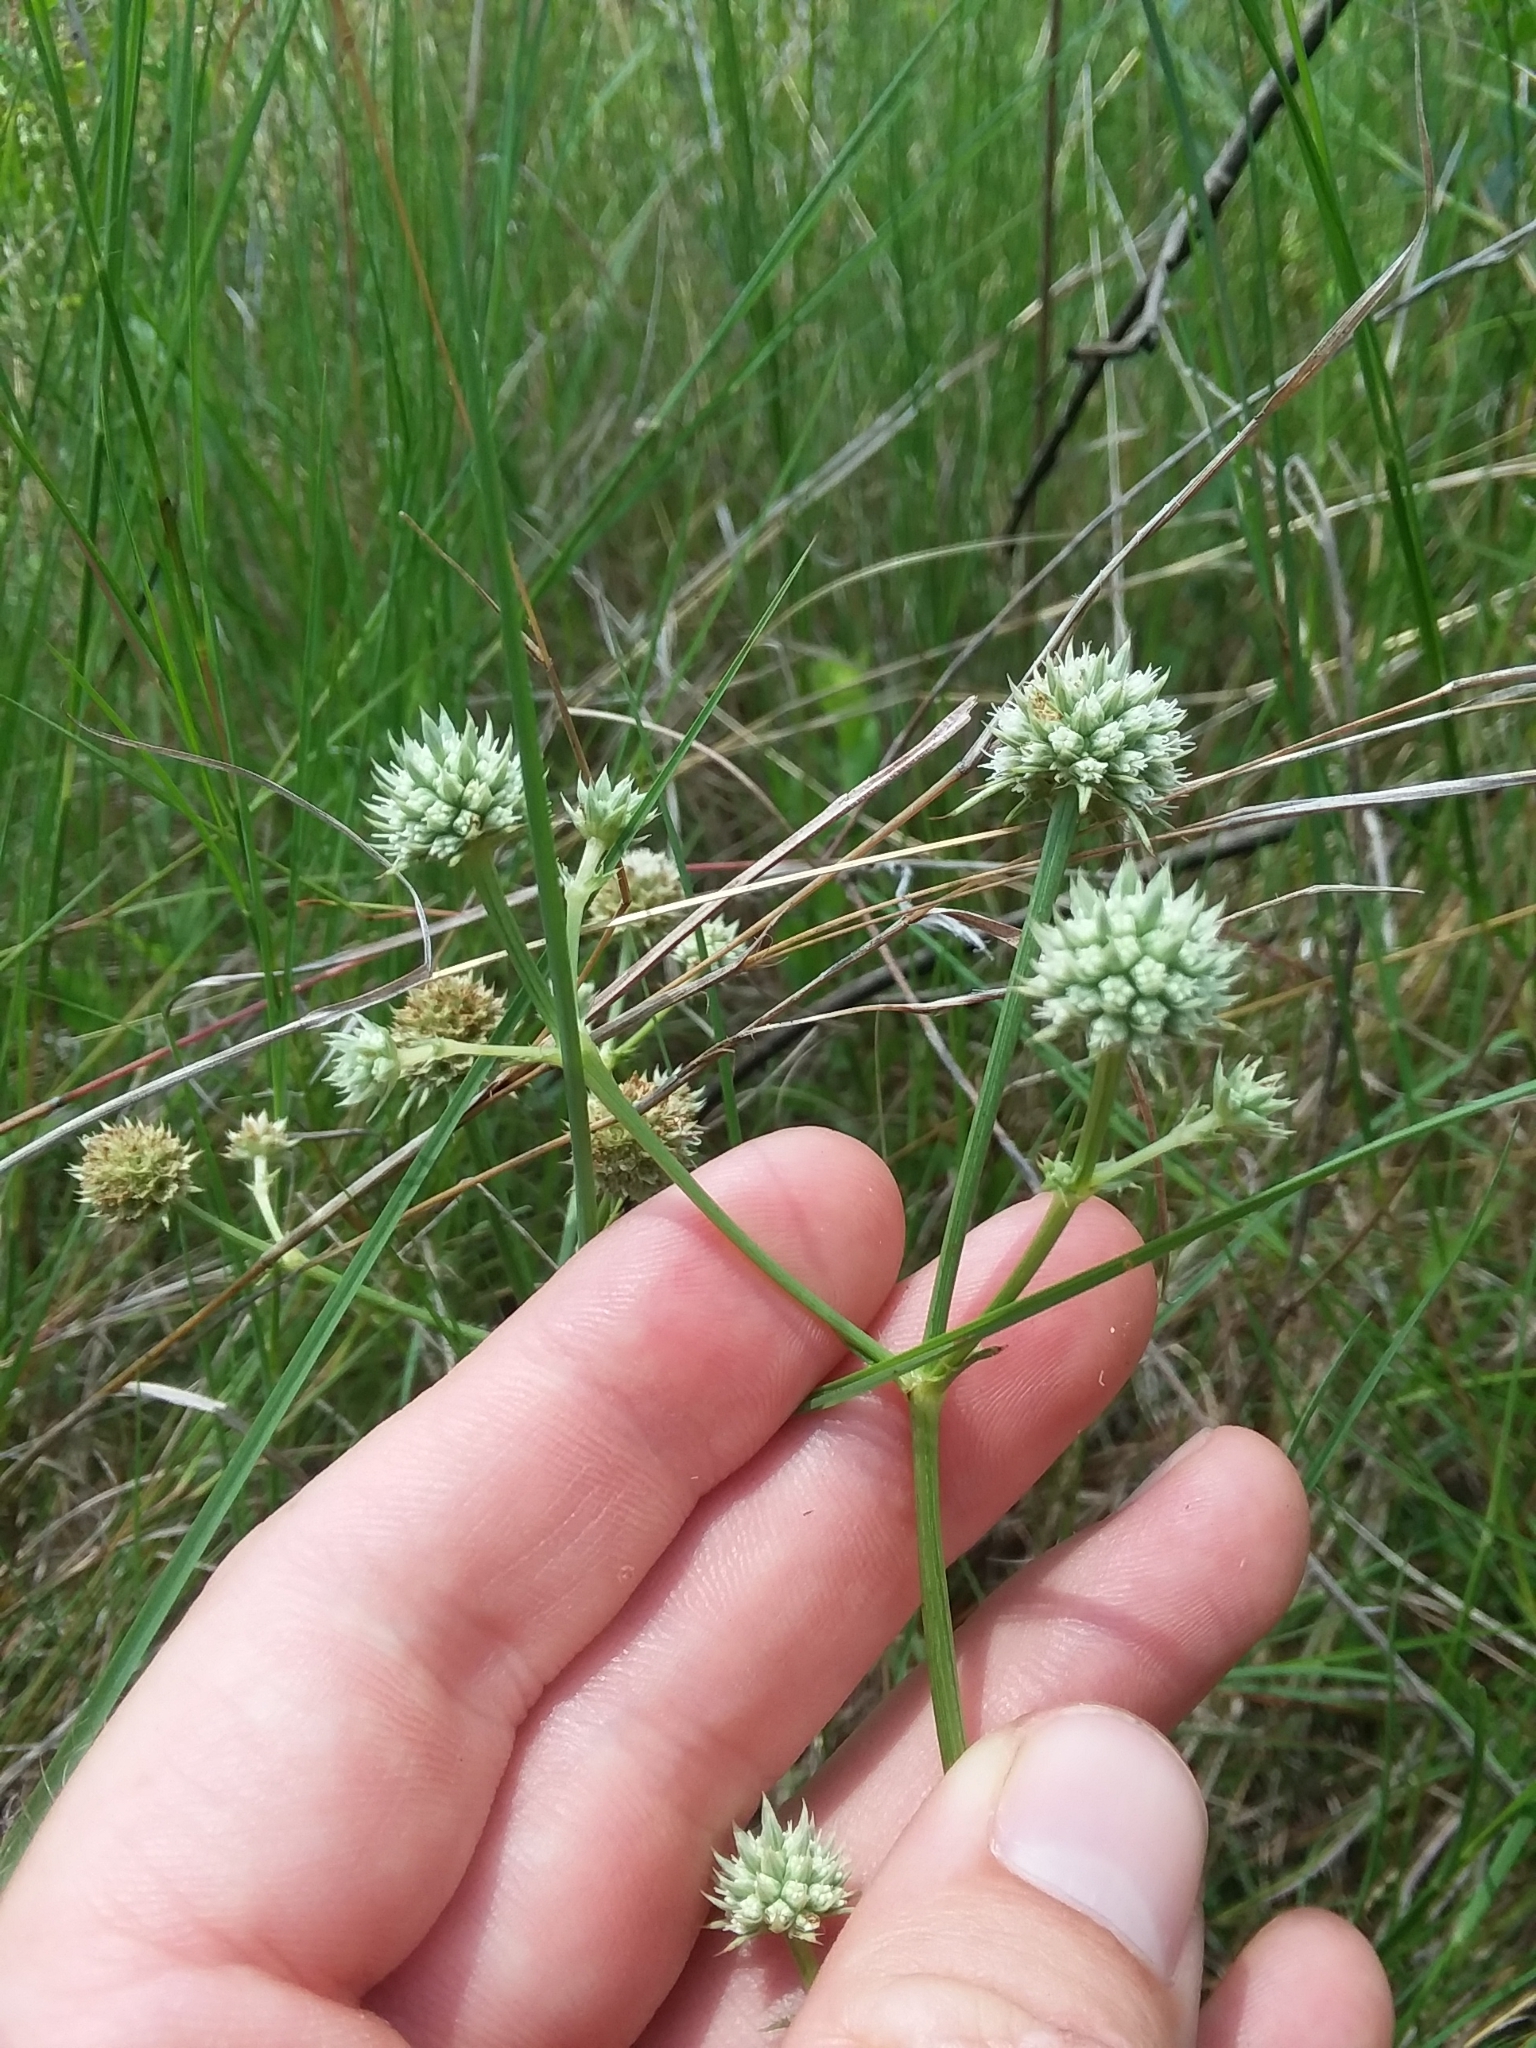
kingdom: Plantae
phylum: Tracheophyta
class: Magnoliopsida
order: Apiales
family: Apiaceae
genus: Eryngium
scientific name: Eryngium yuccifolium
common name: Button eryngo
